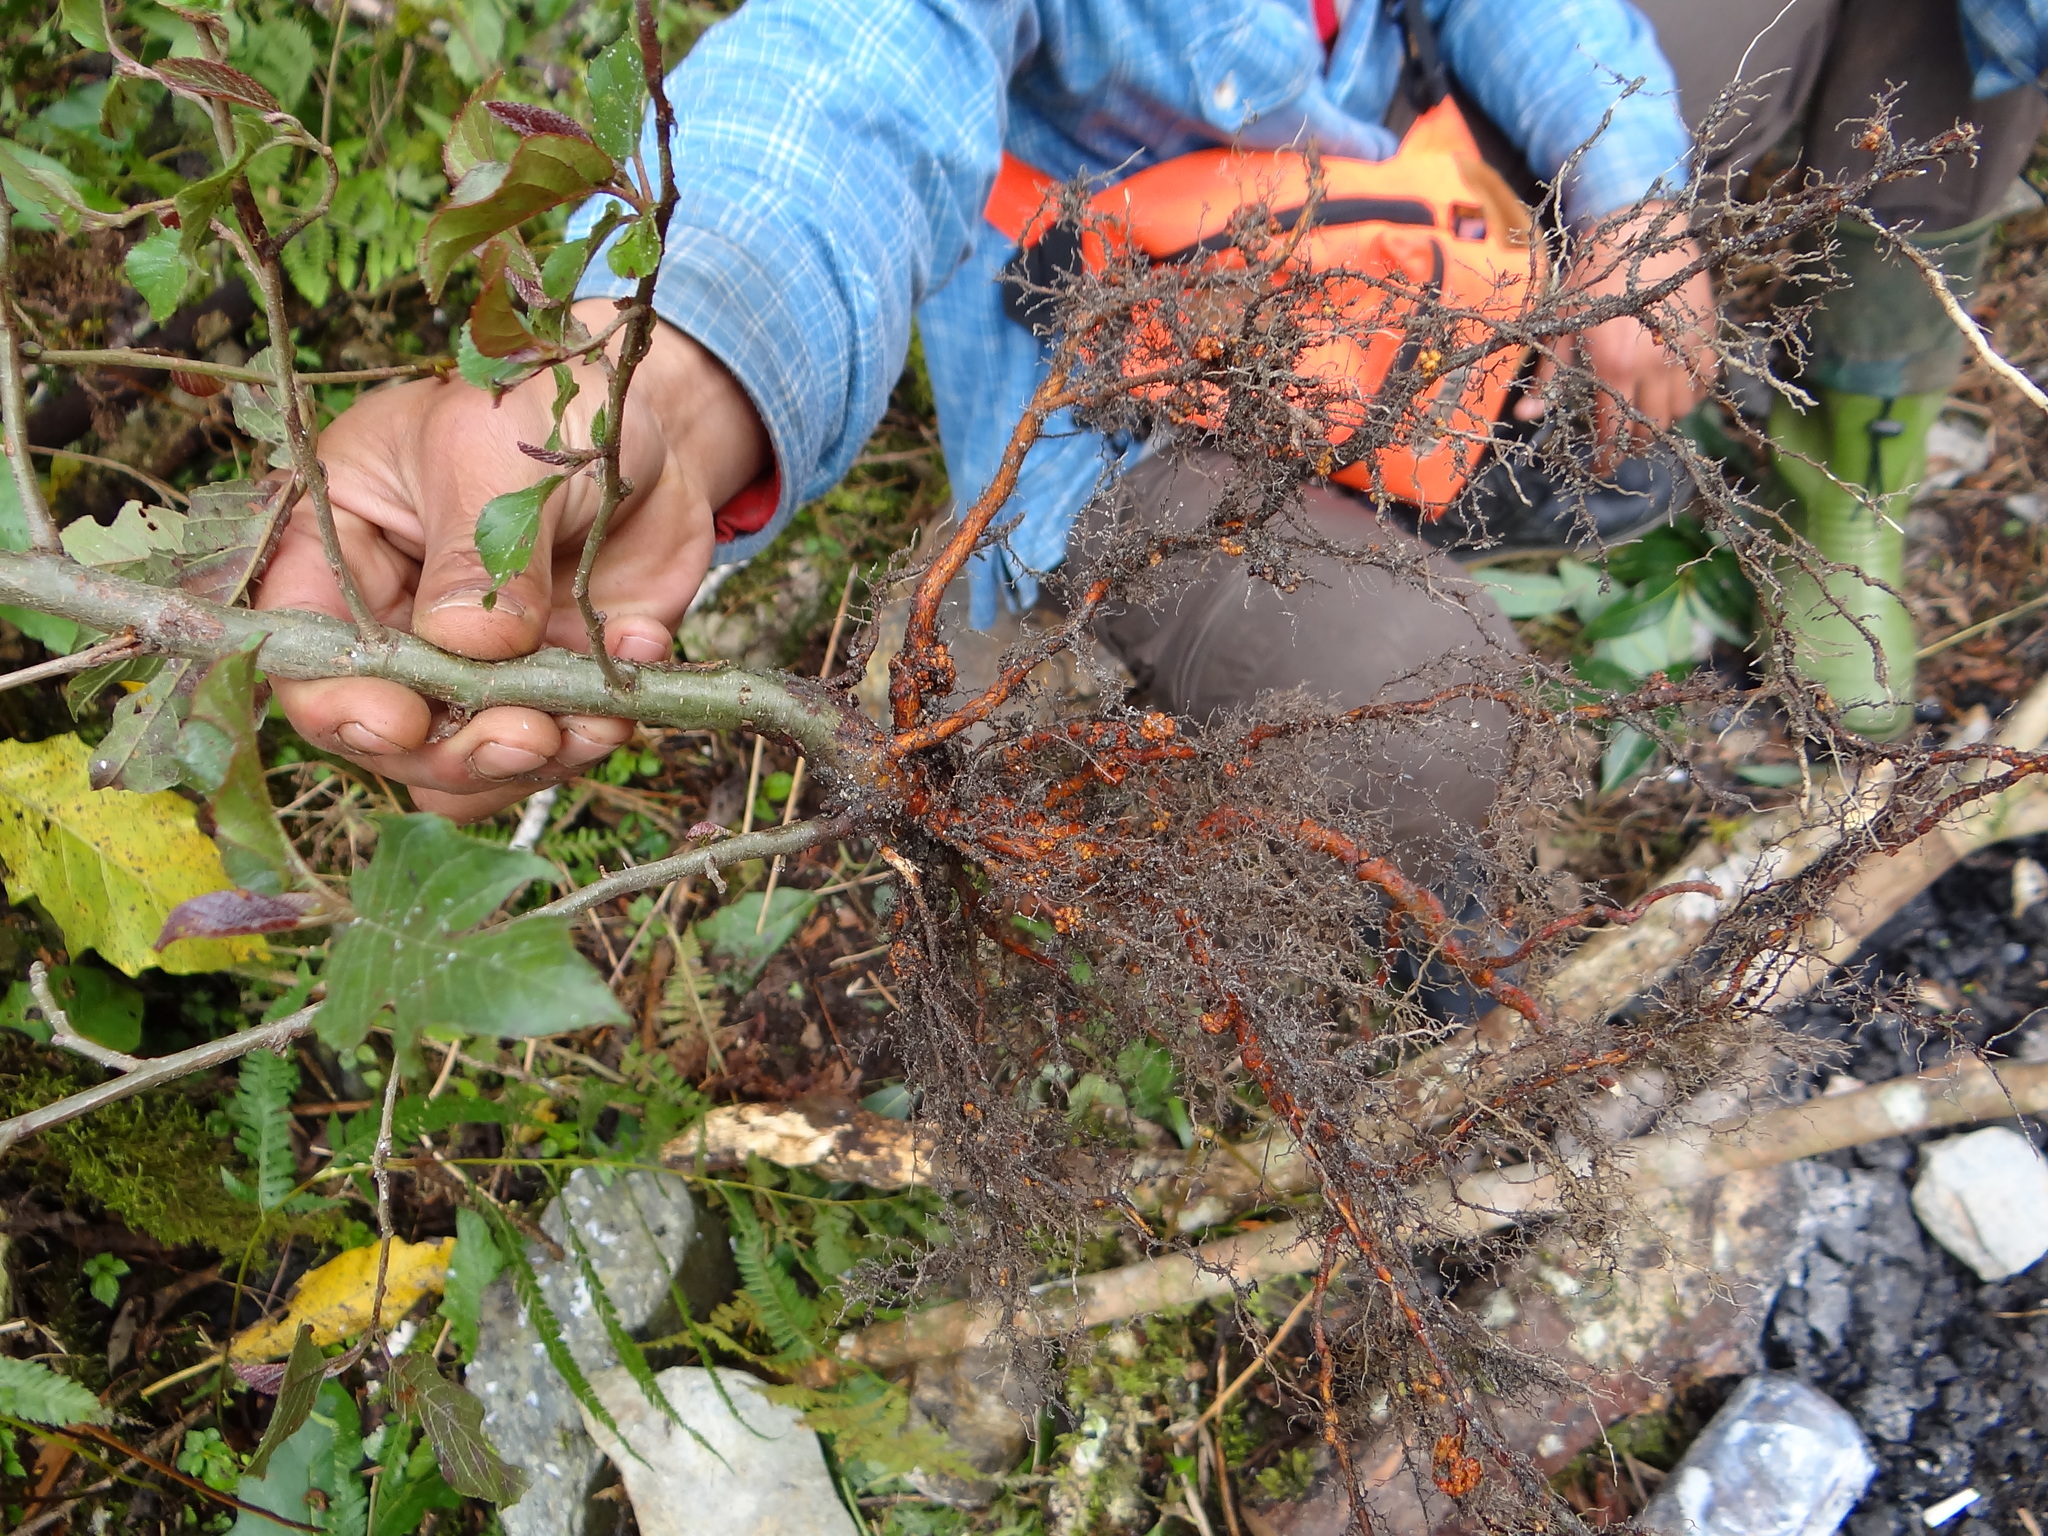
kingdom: Plantae
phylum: Tracheophyta
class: Magnoliopsida
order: Fagales
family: Betulaceae
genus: Alnus
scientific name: Alnus formosana
